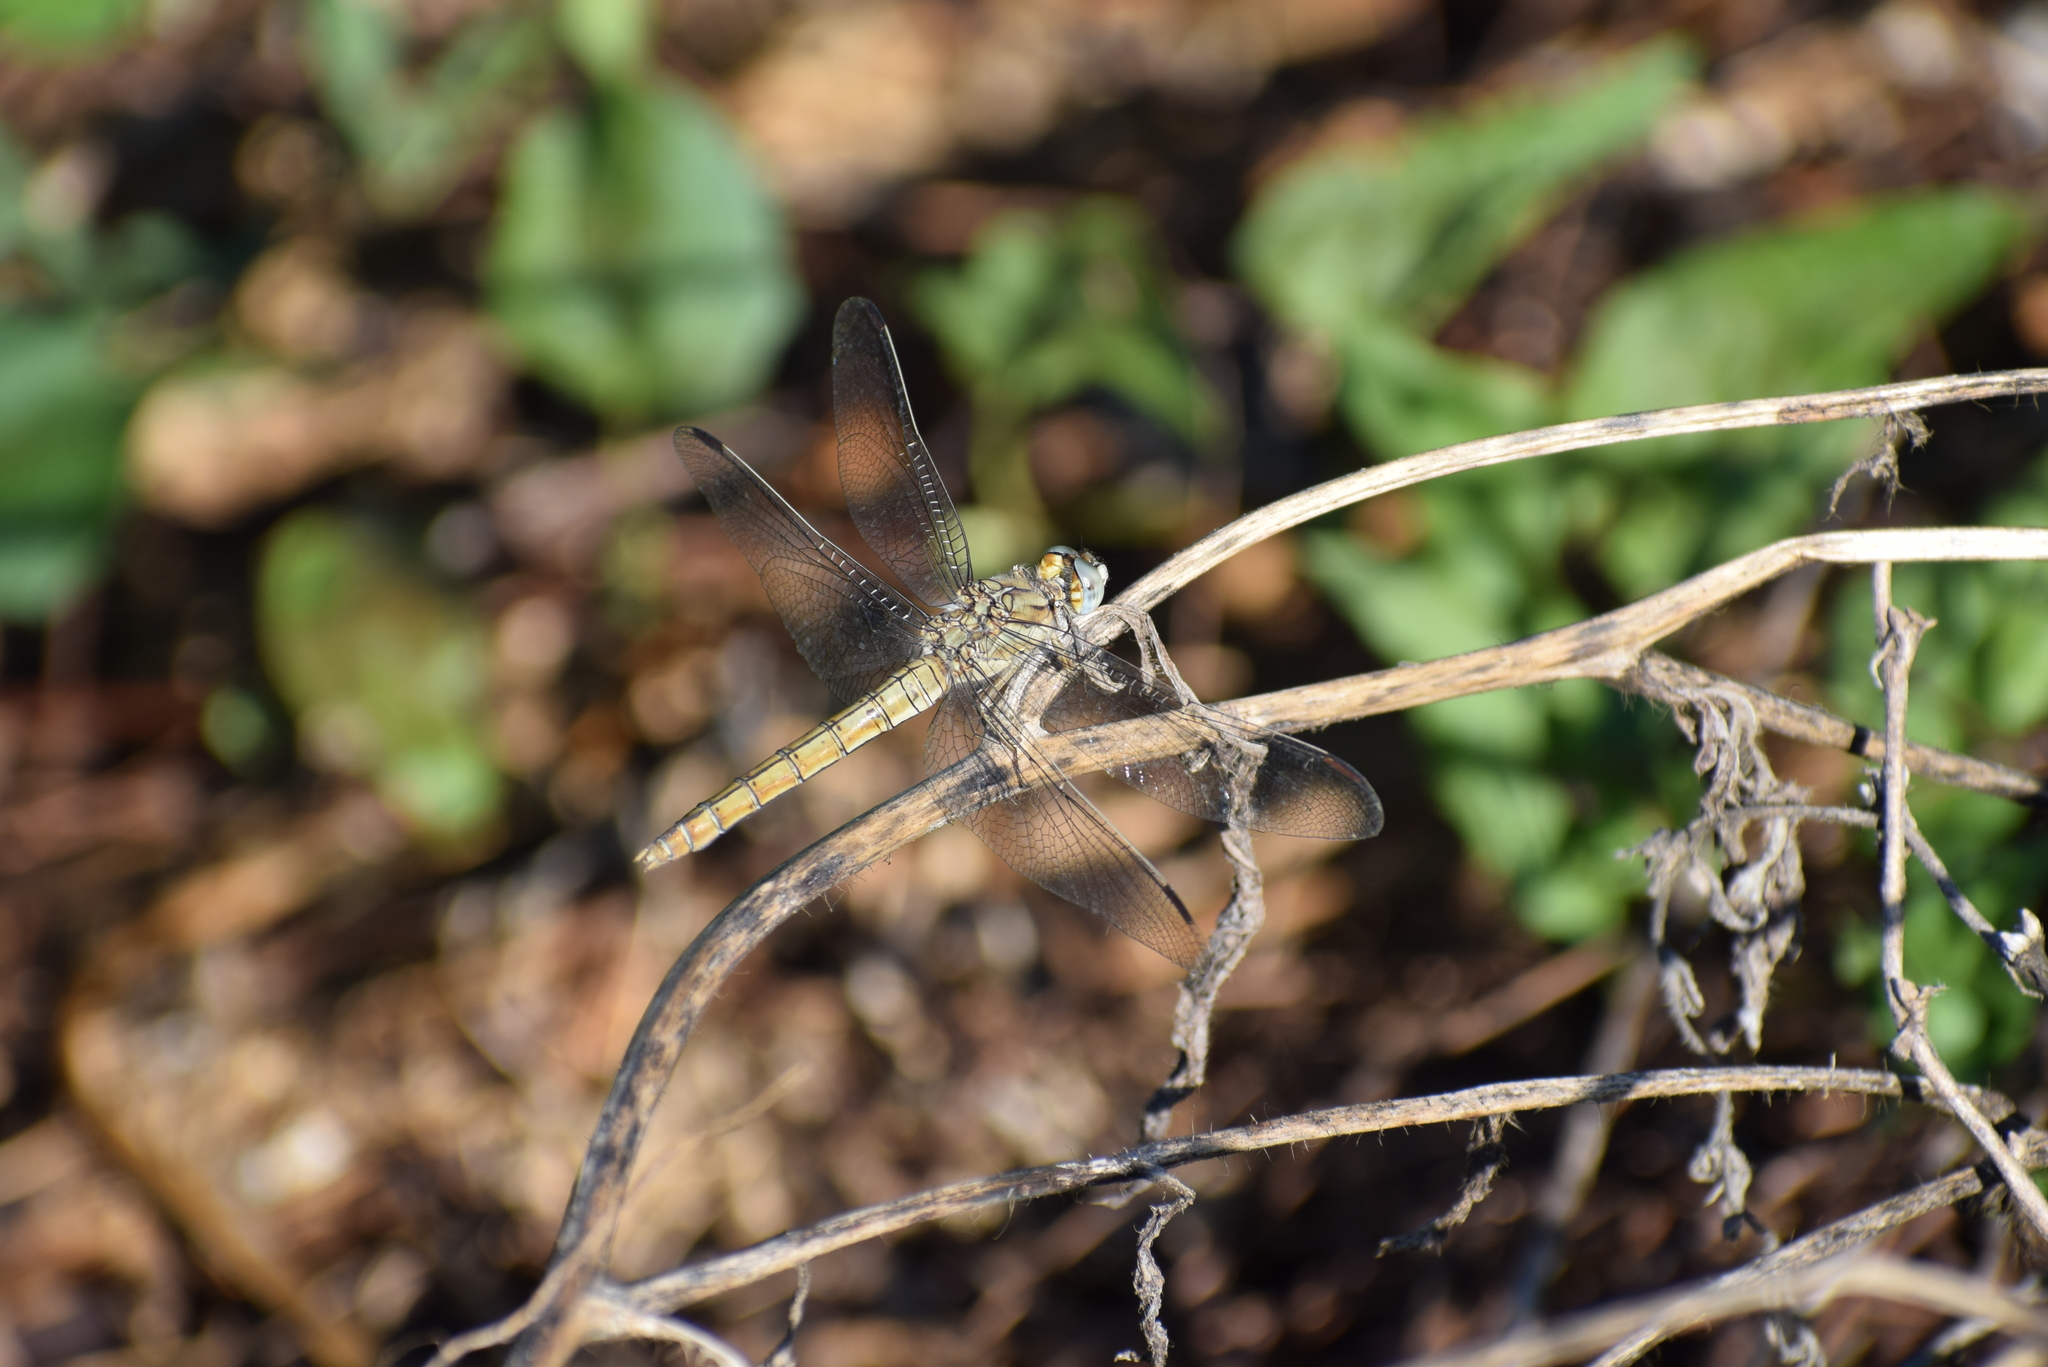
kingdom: Animalia
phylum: Arthropoda
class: Insecta
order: Odonata
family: Libellulidae
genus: Orthetrum
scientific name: Orthetrum brunneum
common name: Southern skimmer
